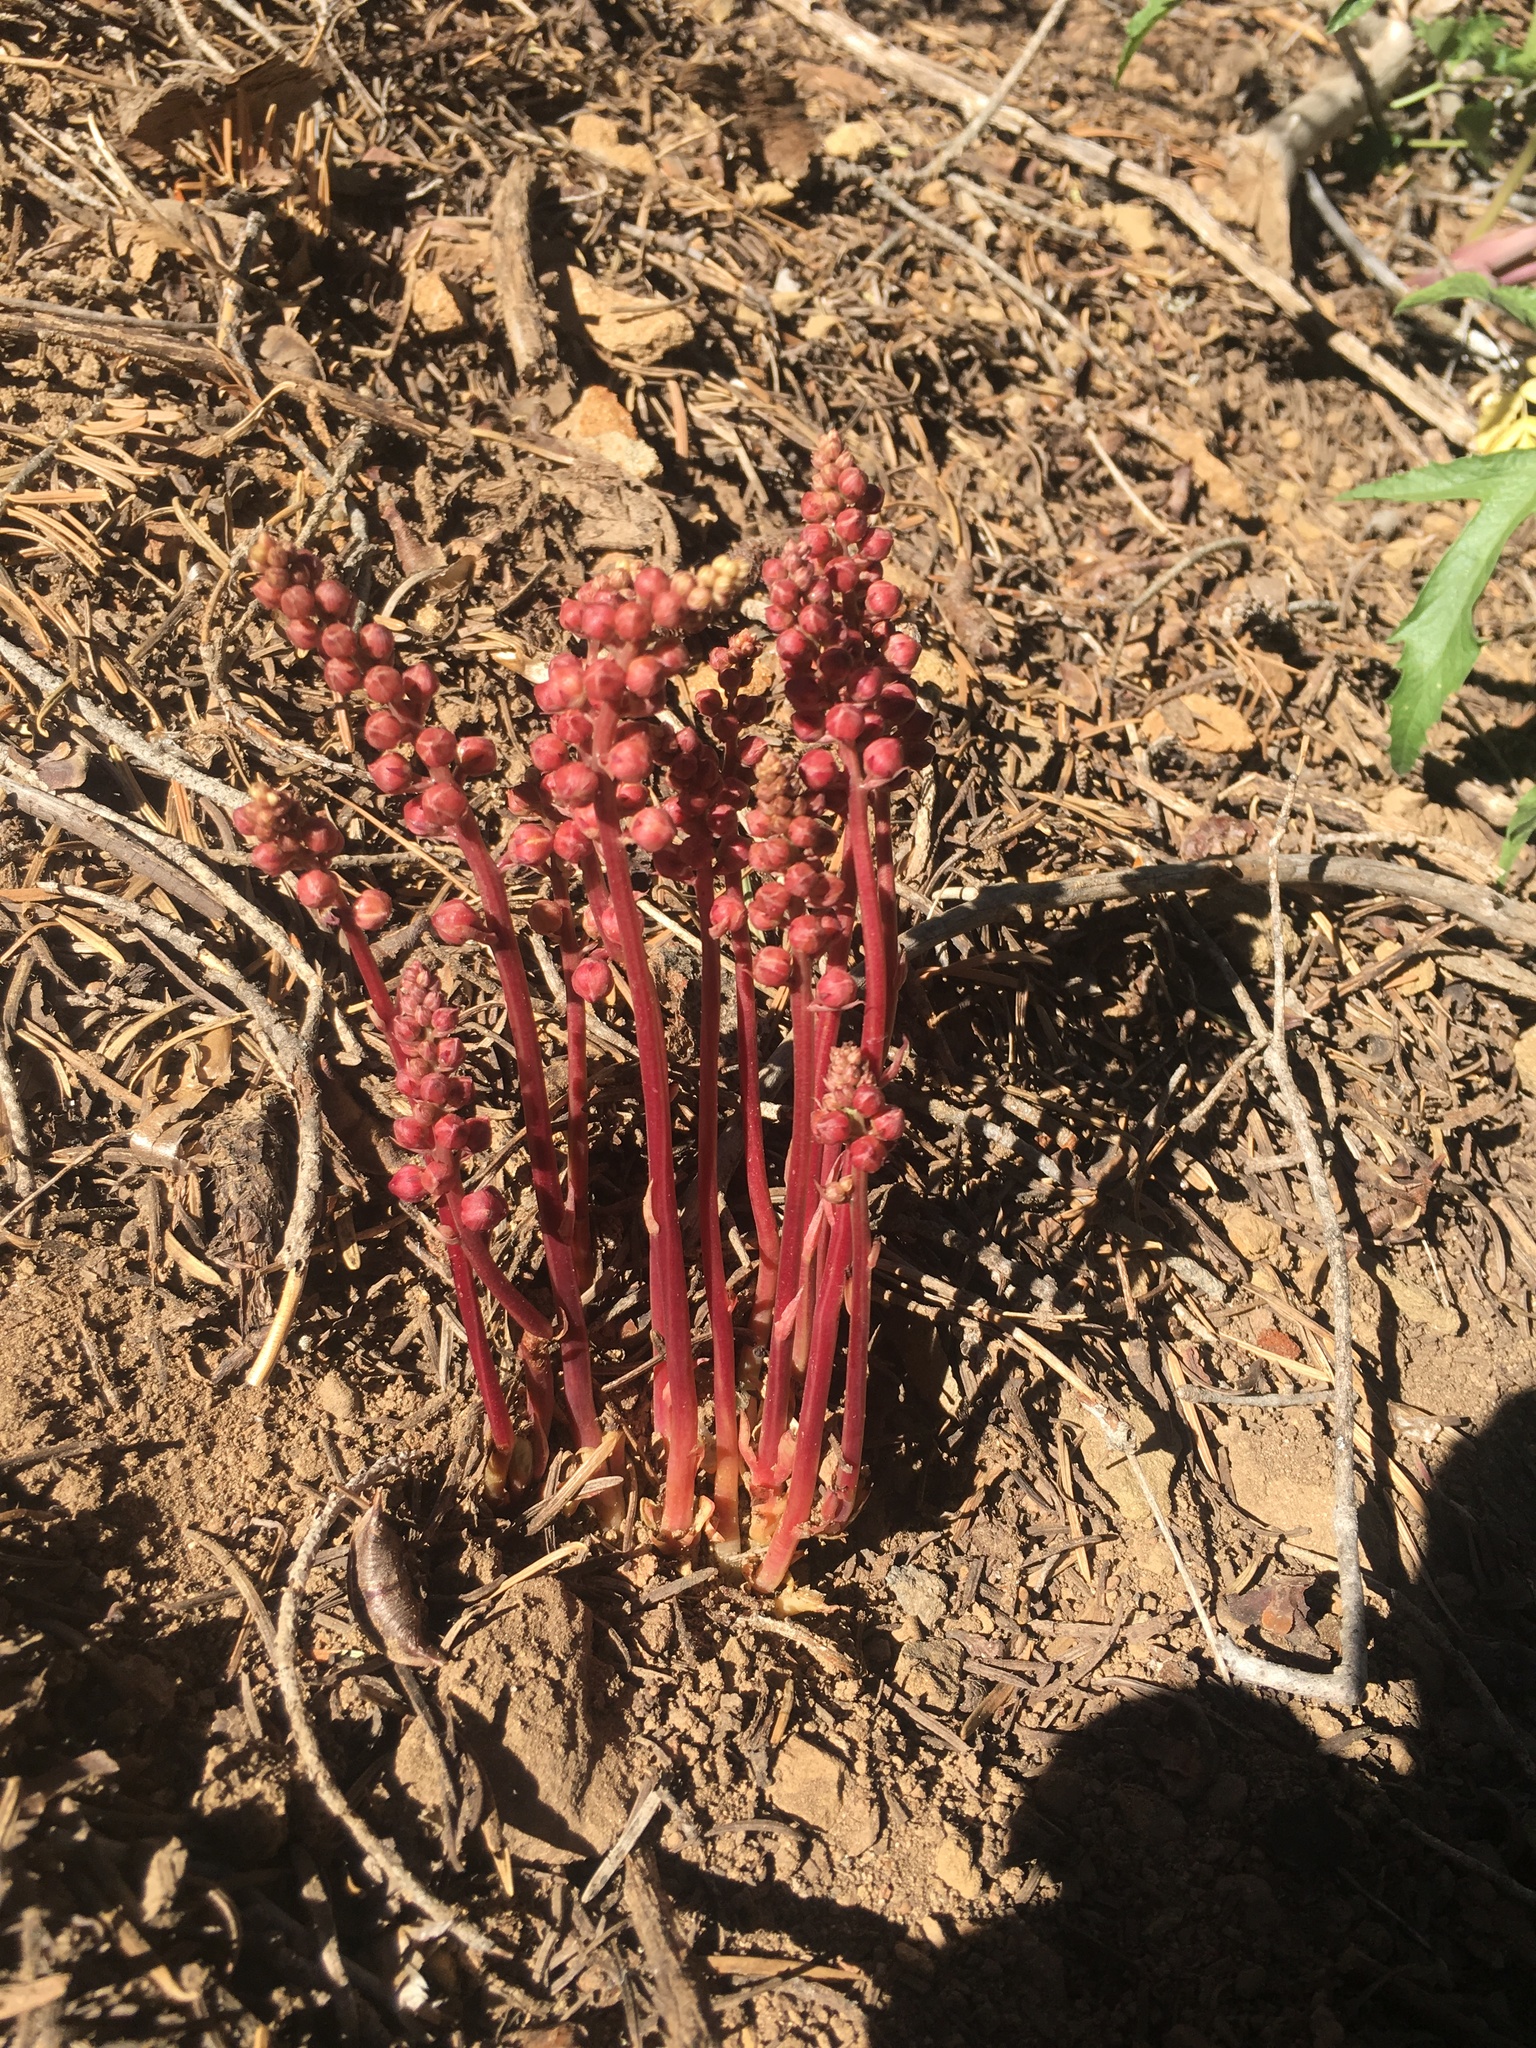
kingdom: Plantae
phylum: Tracheophyta
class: Magnoliopsida
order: Ericales
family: Ericaceae
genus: Pyrola
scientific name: Pyrola aphylla
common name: Leafless wintergreen
